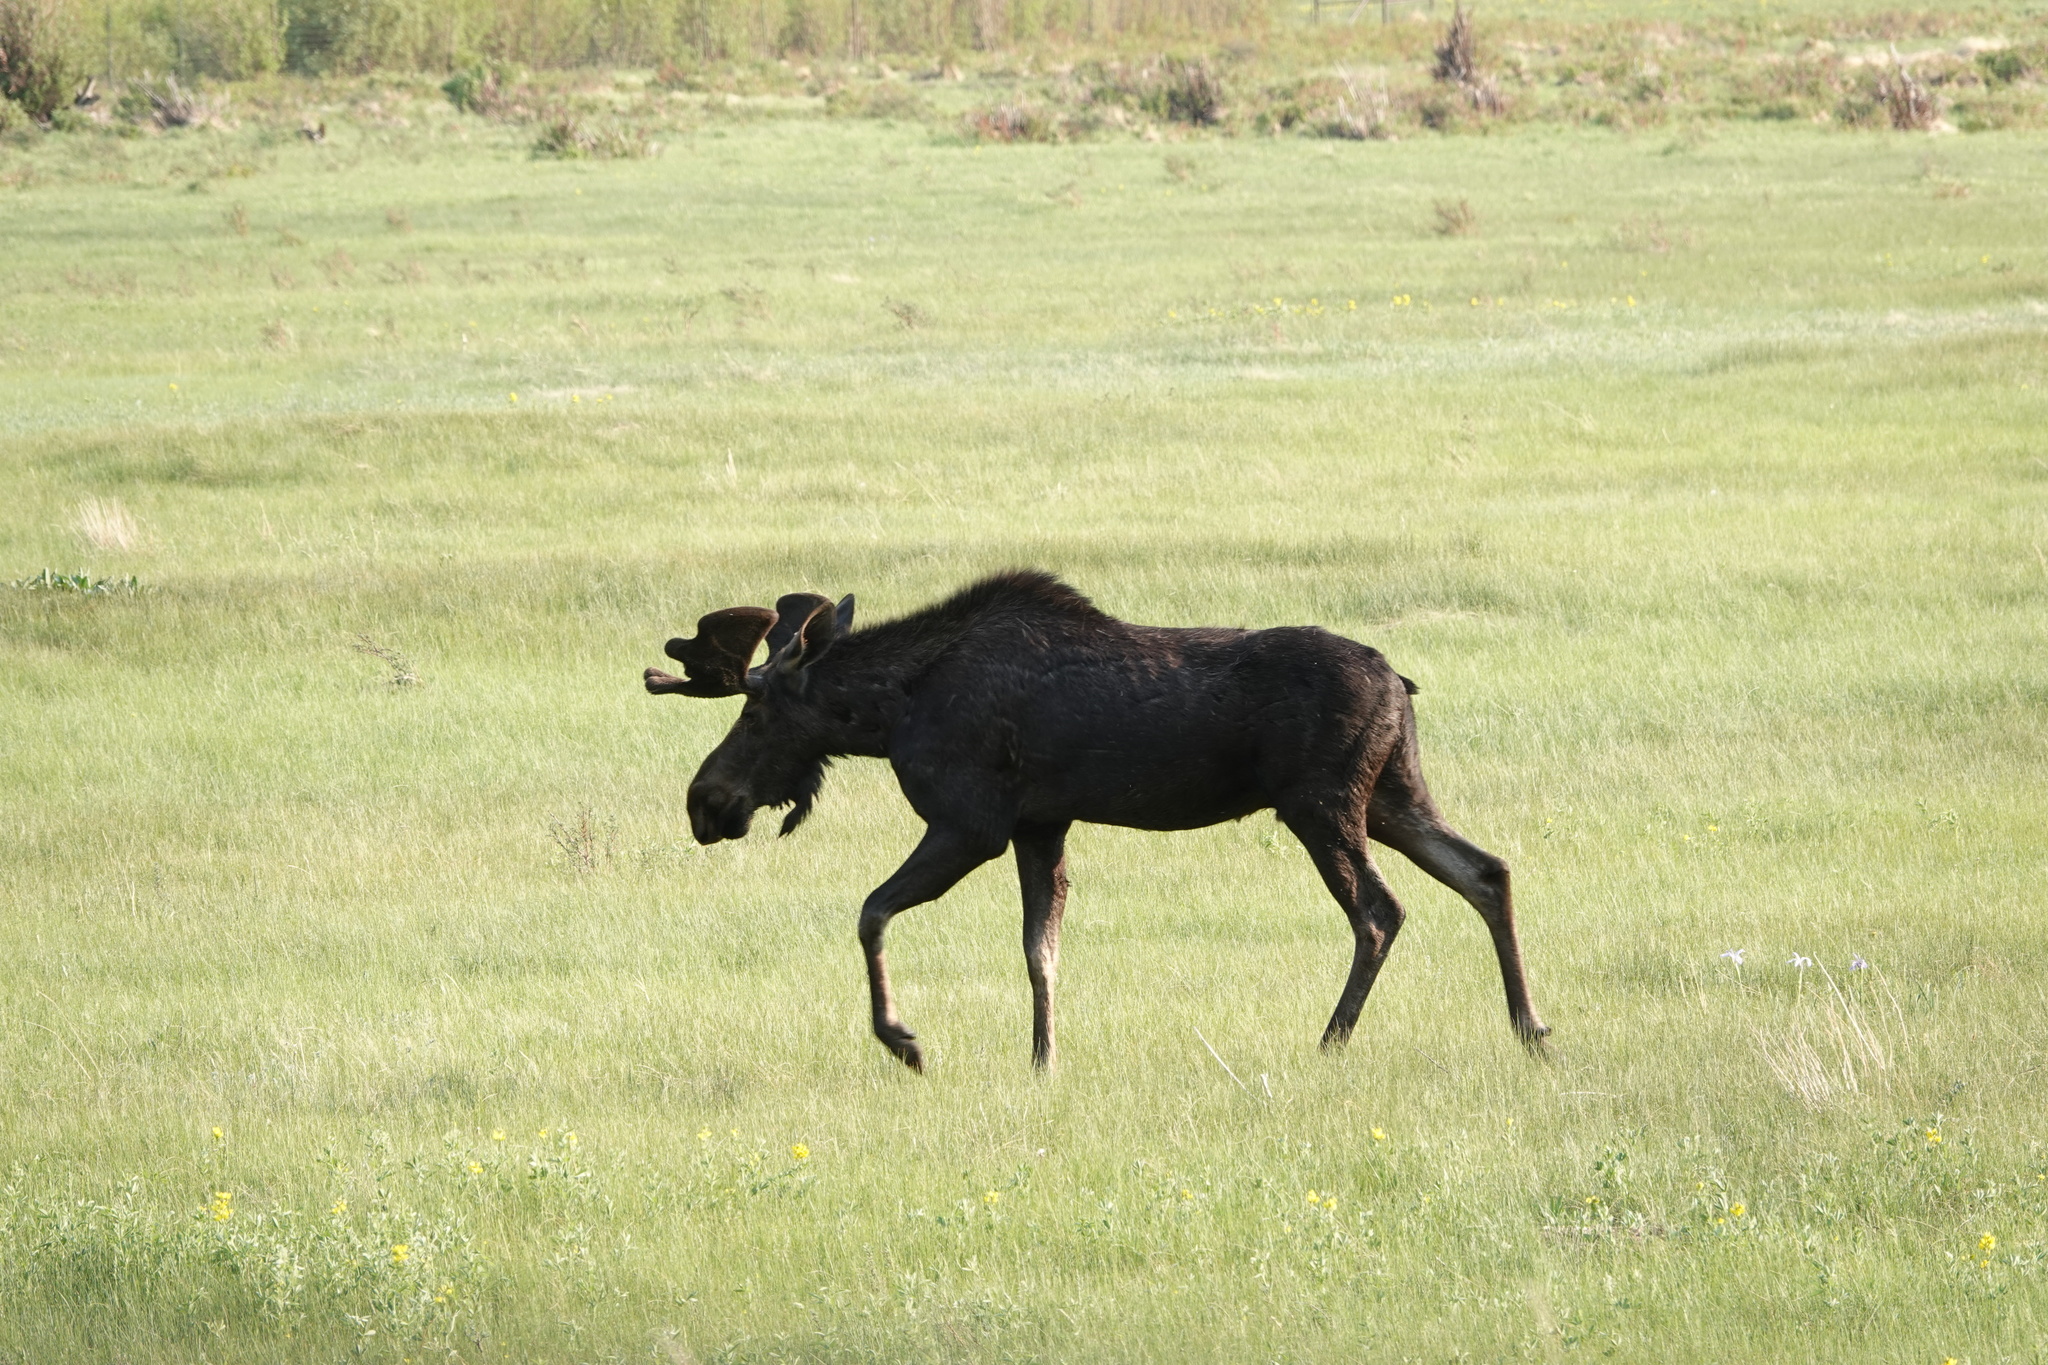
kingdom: Animalia
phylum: Chordata
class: Mammalia
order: Artiodactyla
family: Cervidae
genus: Alces
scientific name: Alces alces
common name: Moose
